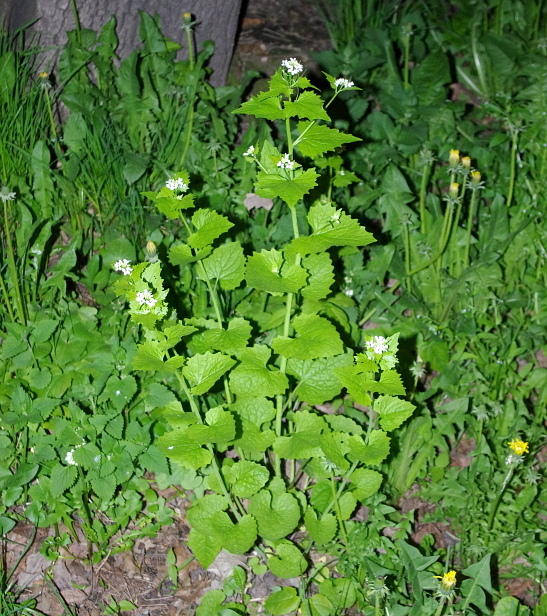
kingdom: Plantae
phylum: Tracheophyta
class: Magnoliopsida
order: Brassicales
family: Brassicaceae
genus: Alliaria
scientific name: Alliaria petiolata
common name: Garlic mustard
